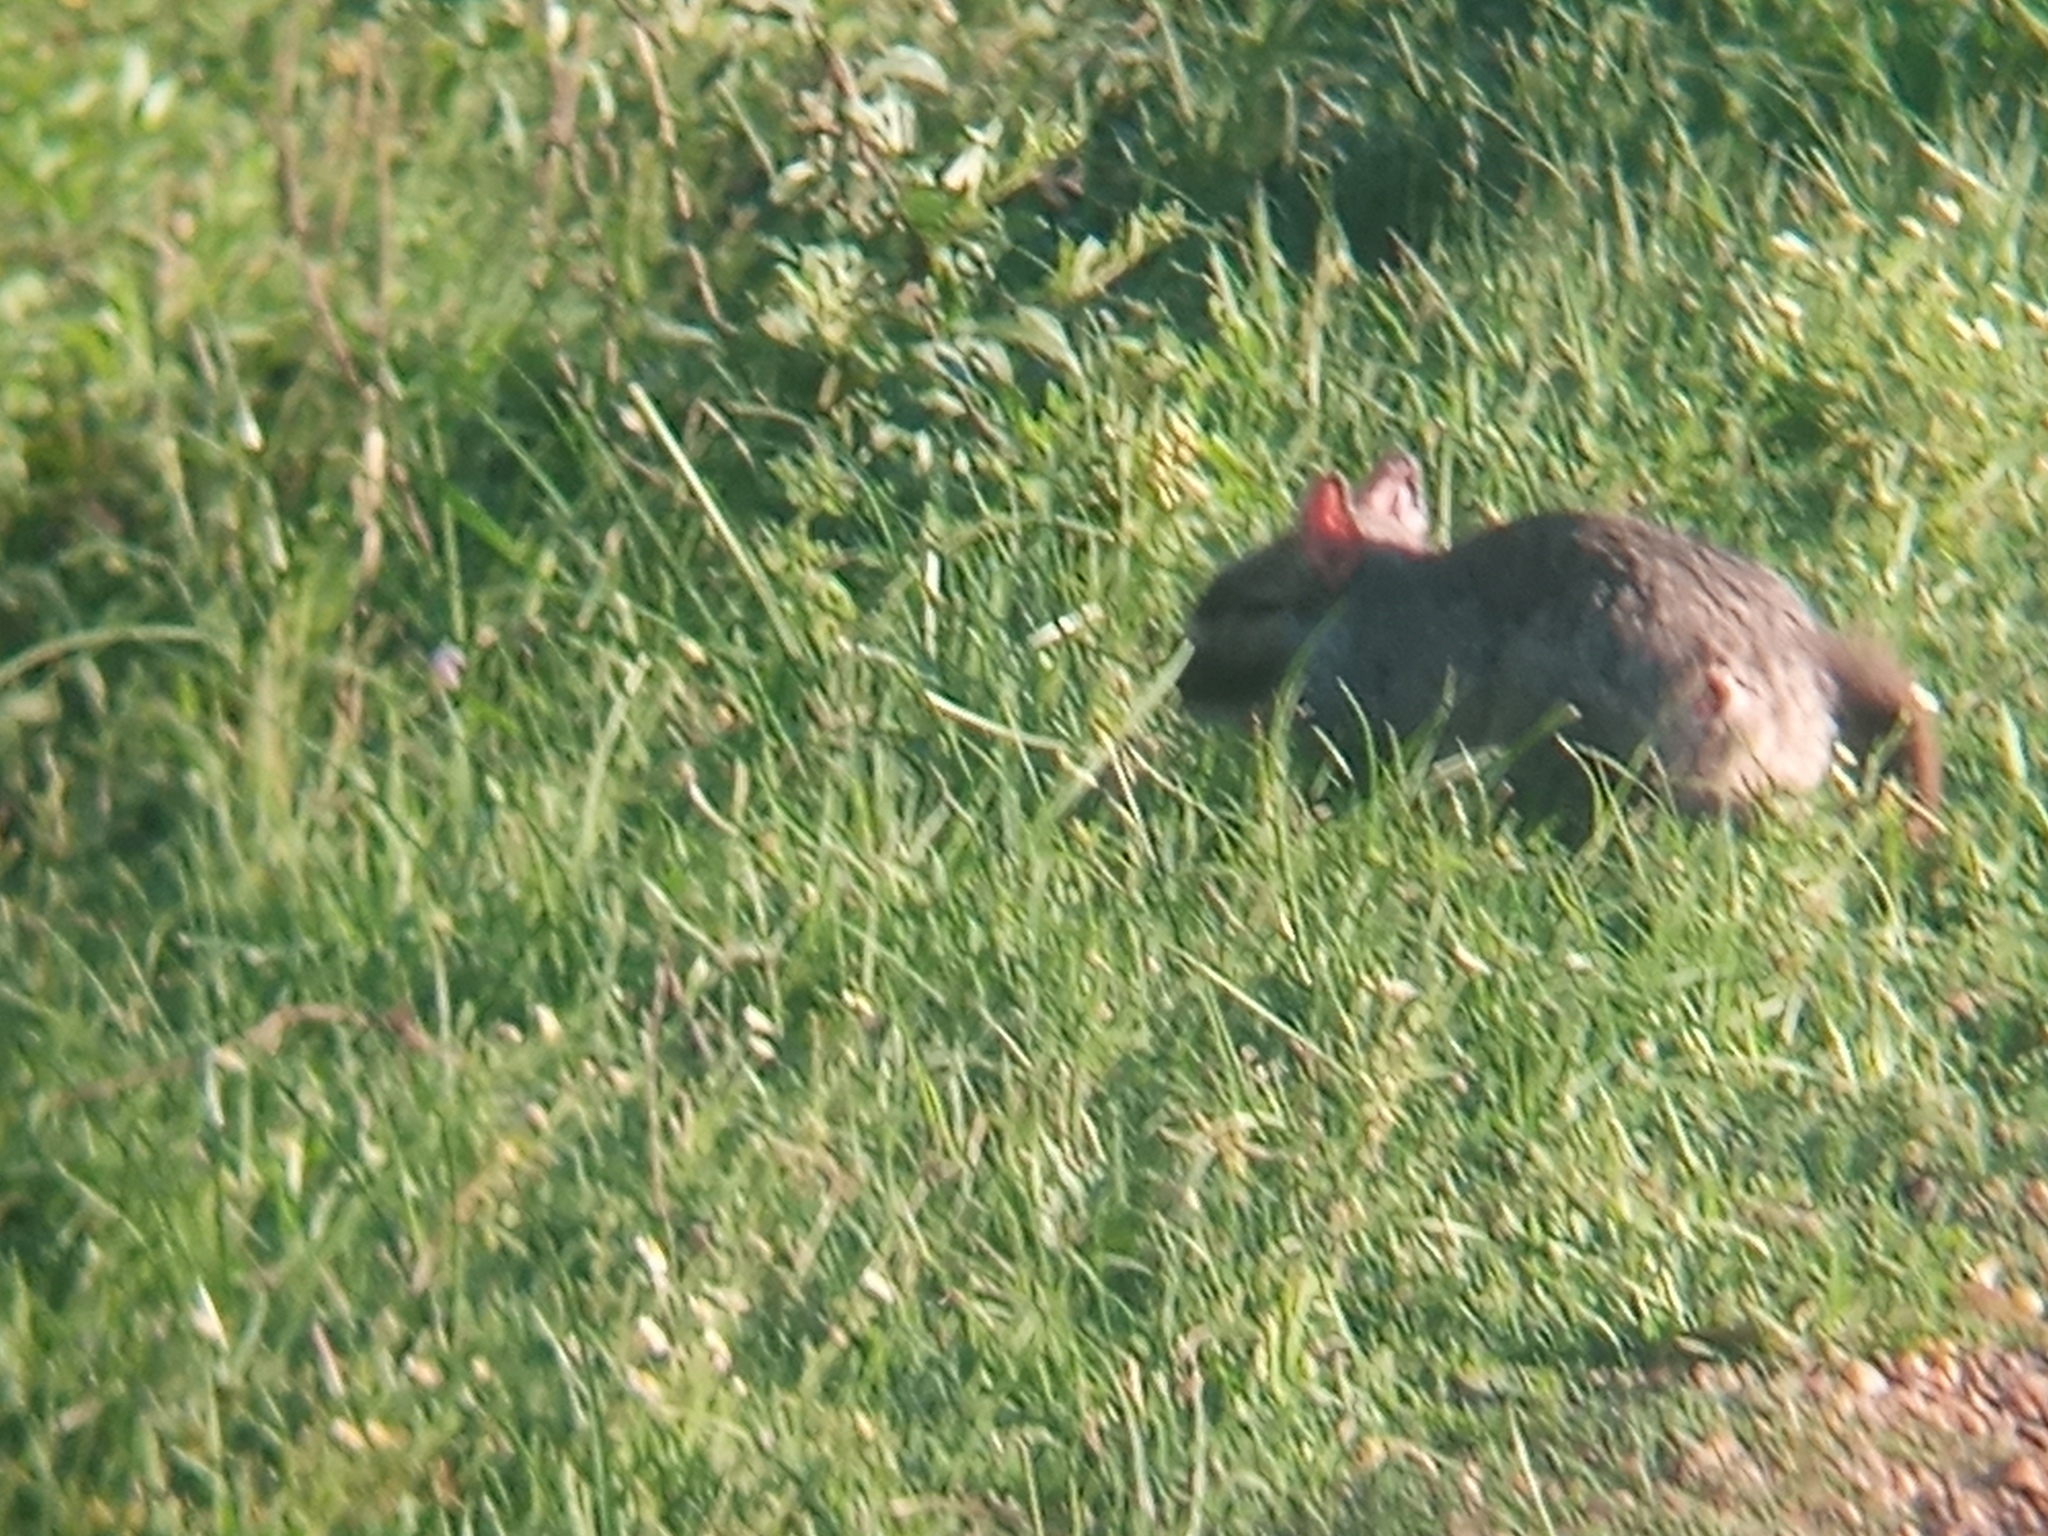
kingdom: Animalia
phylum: Chordata
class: Mammalia
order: Rodentia
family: Chinchillidae
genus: Lagostomus
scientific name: Lagostomus maximus
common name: Plains viscacha
